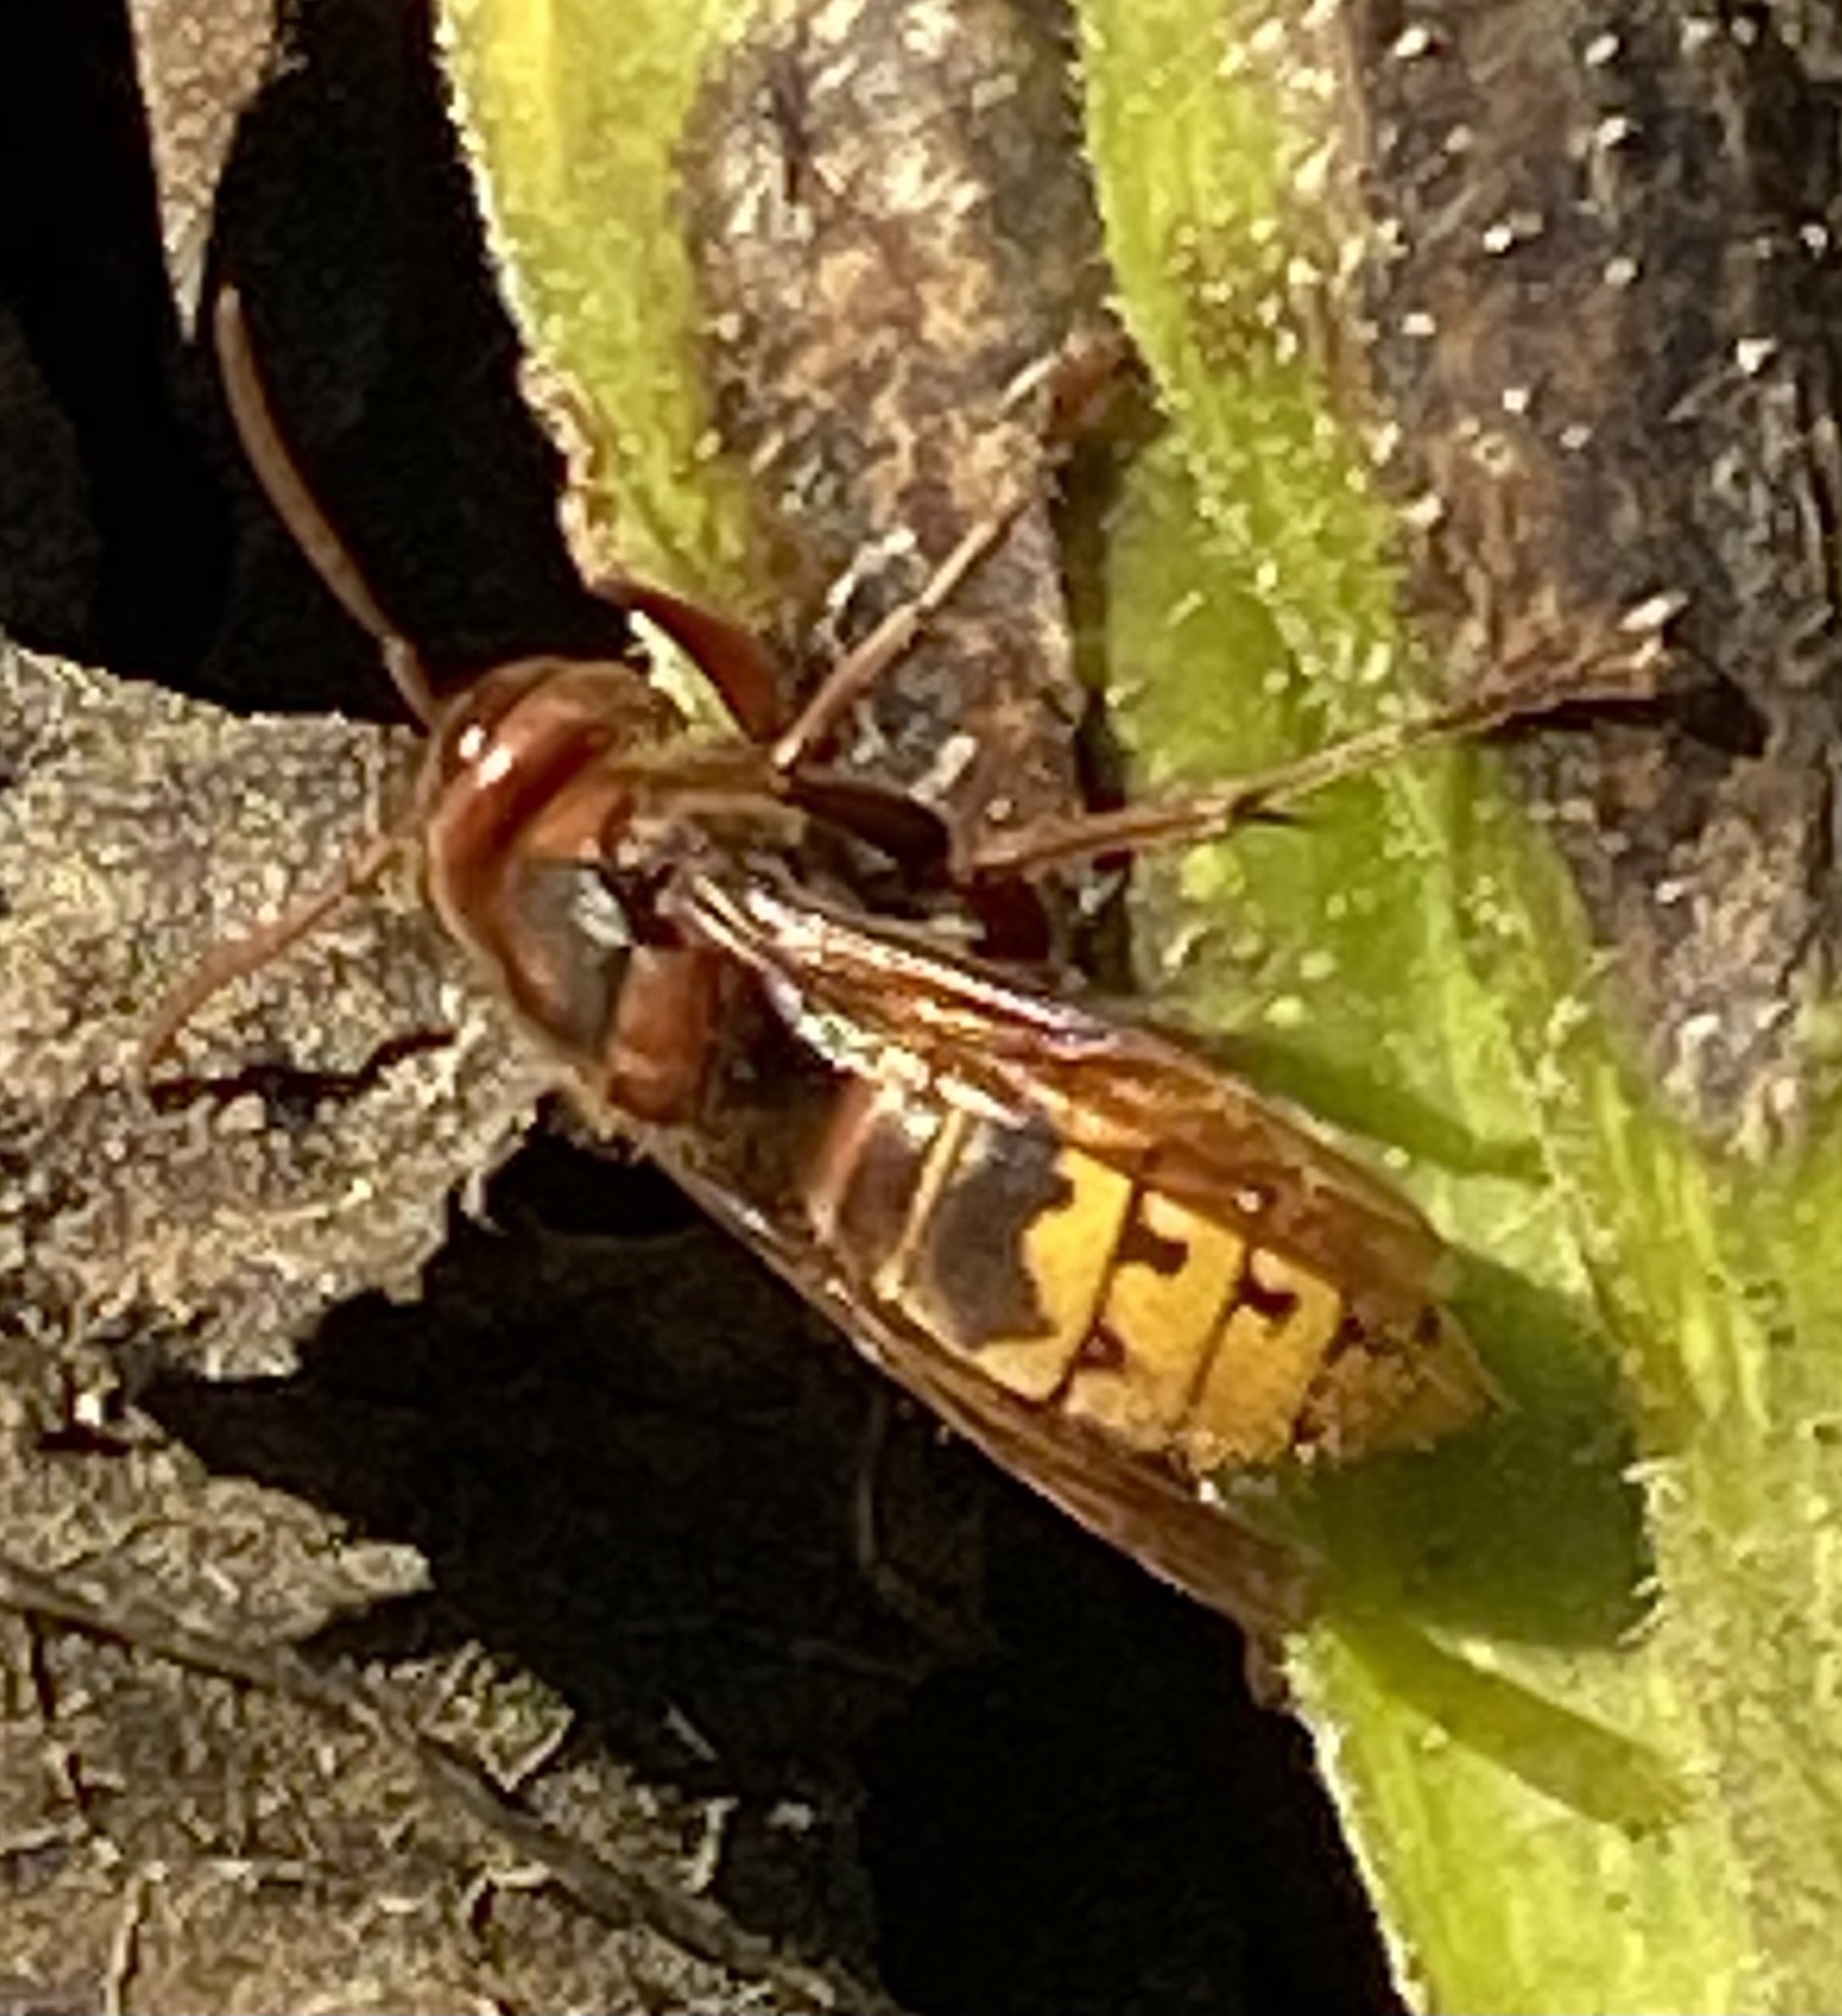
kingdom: Animalia
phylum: Arthropoda
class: Insecta
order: Hymenoptera
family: Vespidae
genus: Vespa
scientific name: Vespa crabro
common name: Hornet
